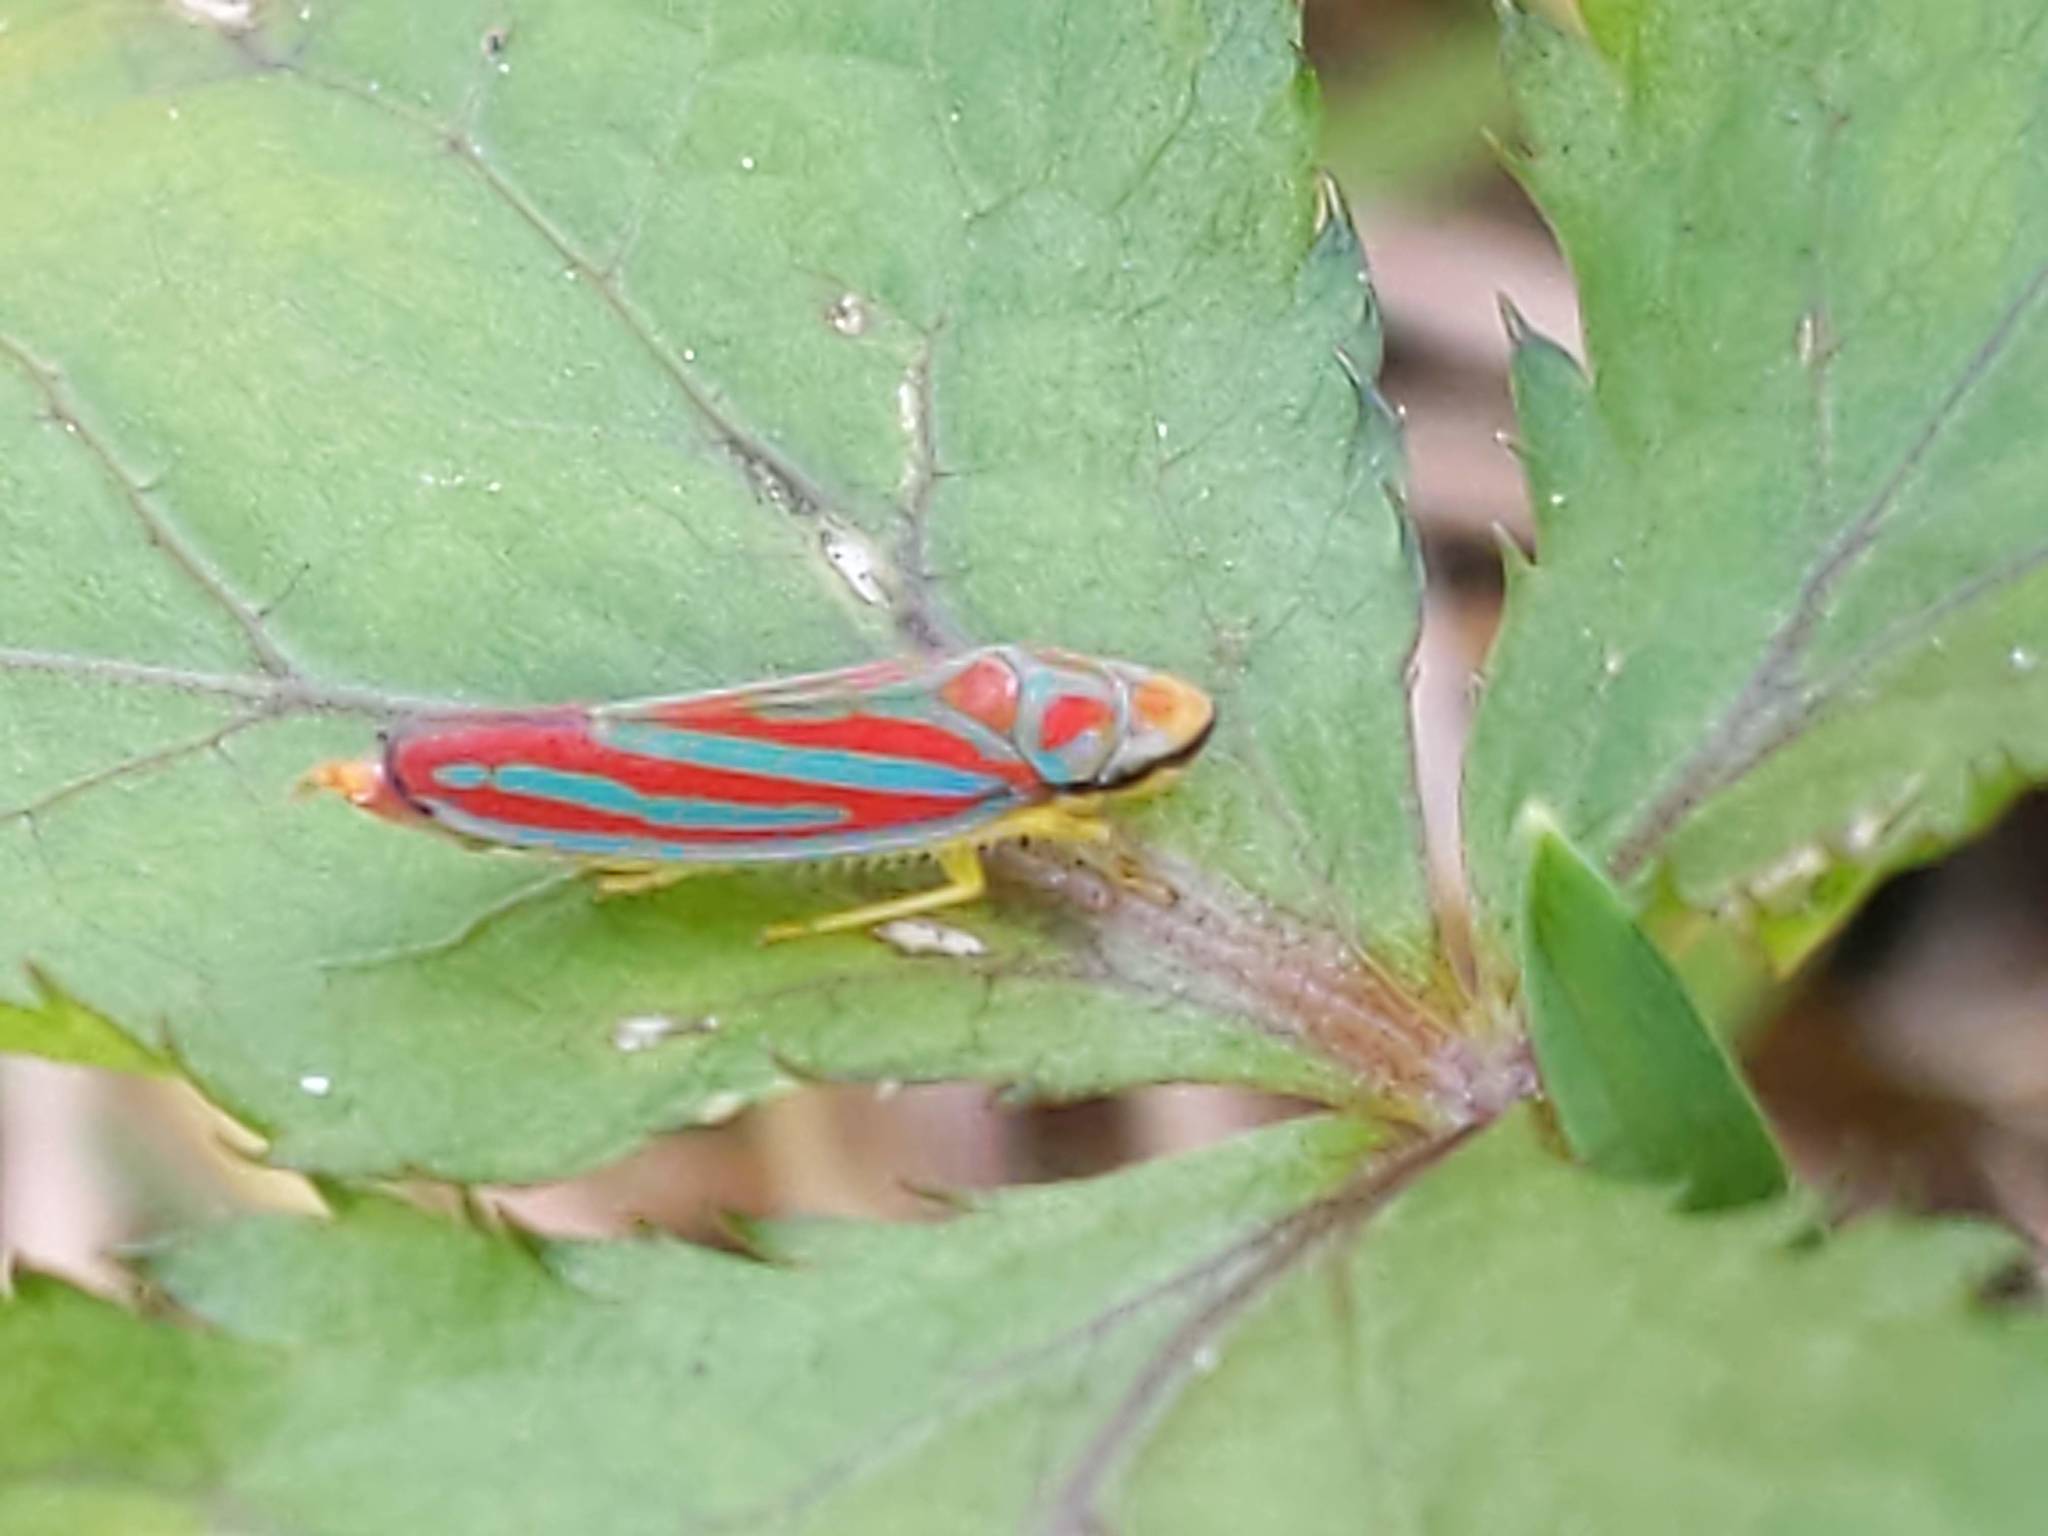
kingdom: Animalia
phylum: Arthropoda
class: Insecta
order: Hemiptera
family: Cicadellidae
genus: Graphocephala
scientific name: Graphocephala coccinea
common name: Candy-striped leafhopper
